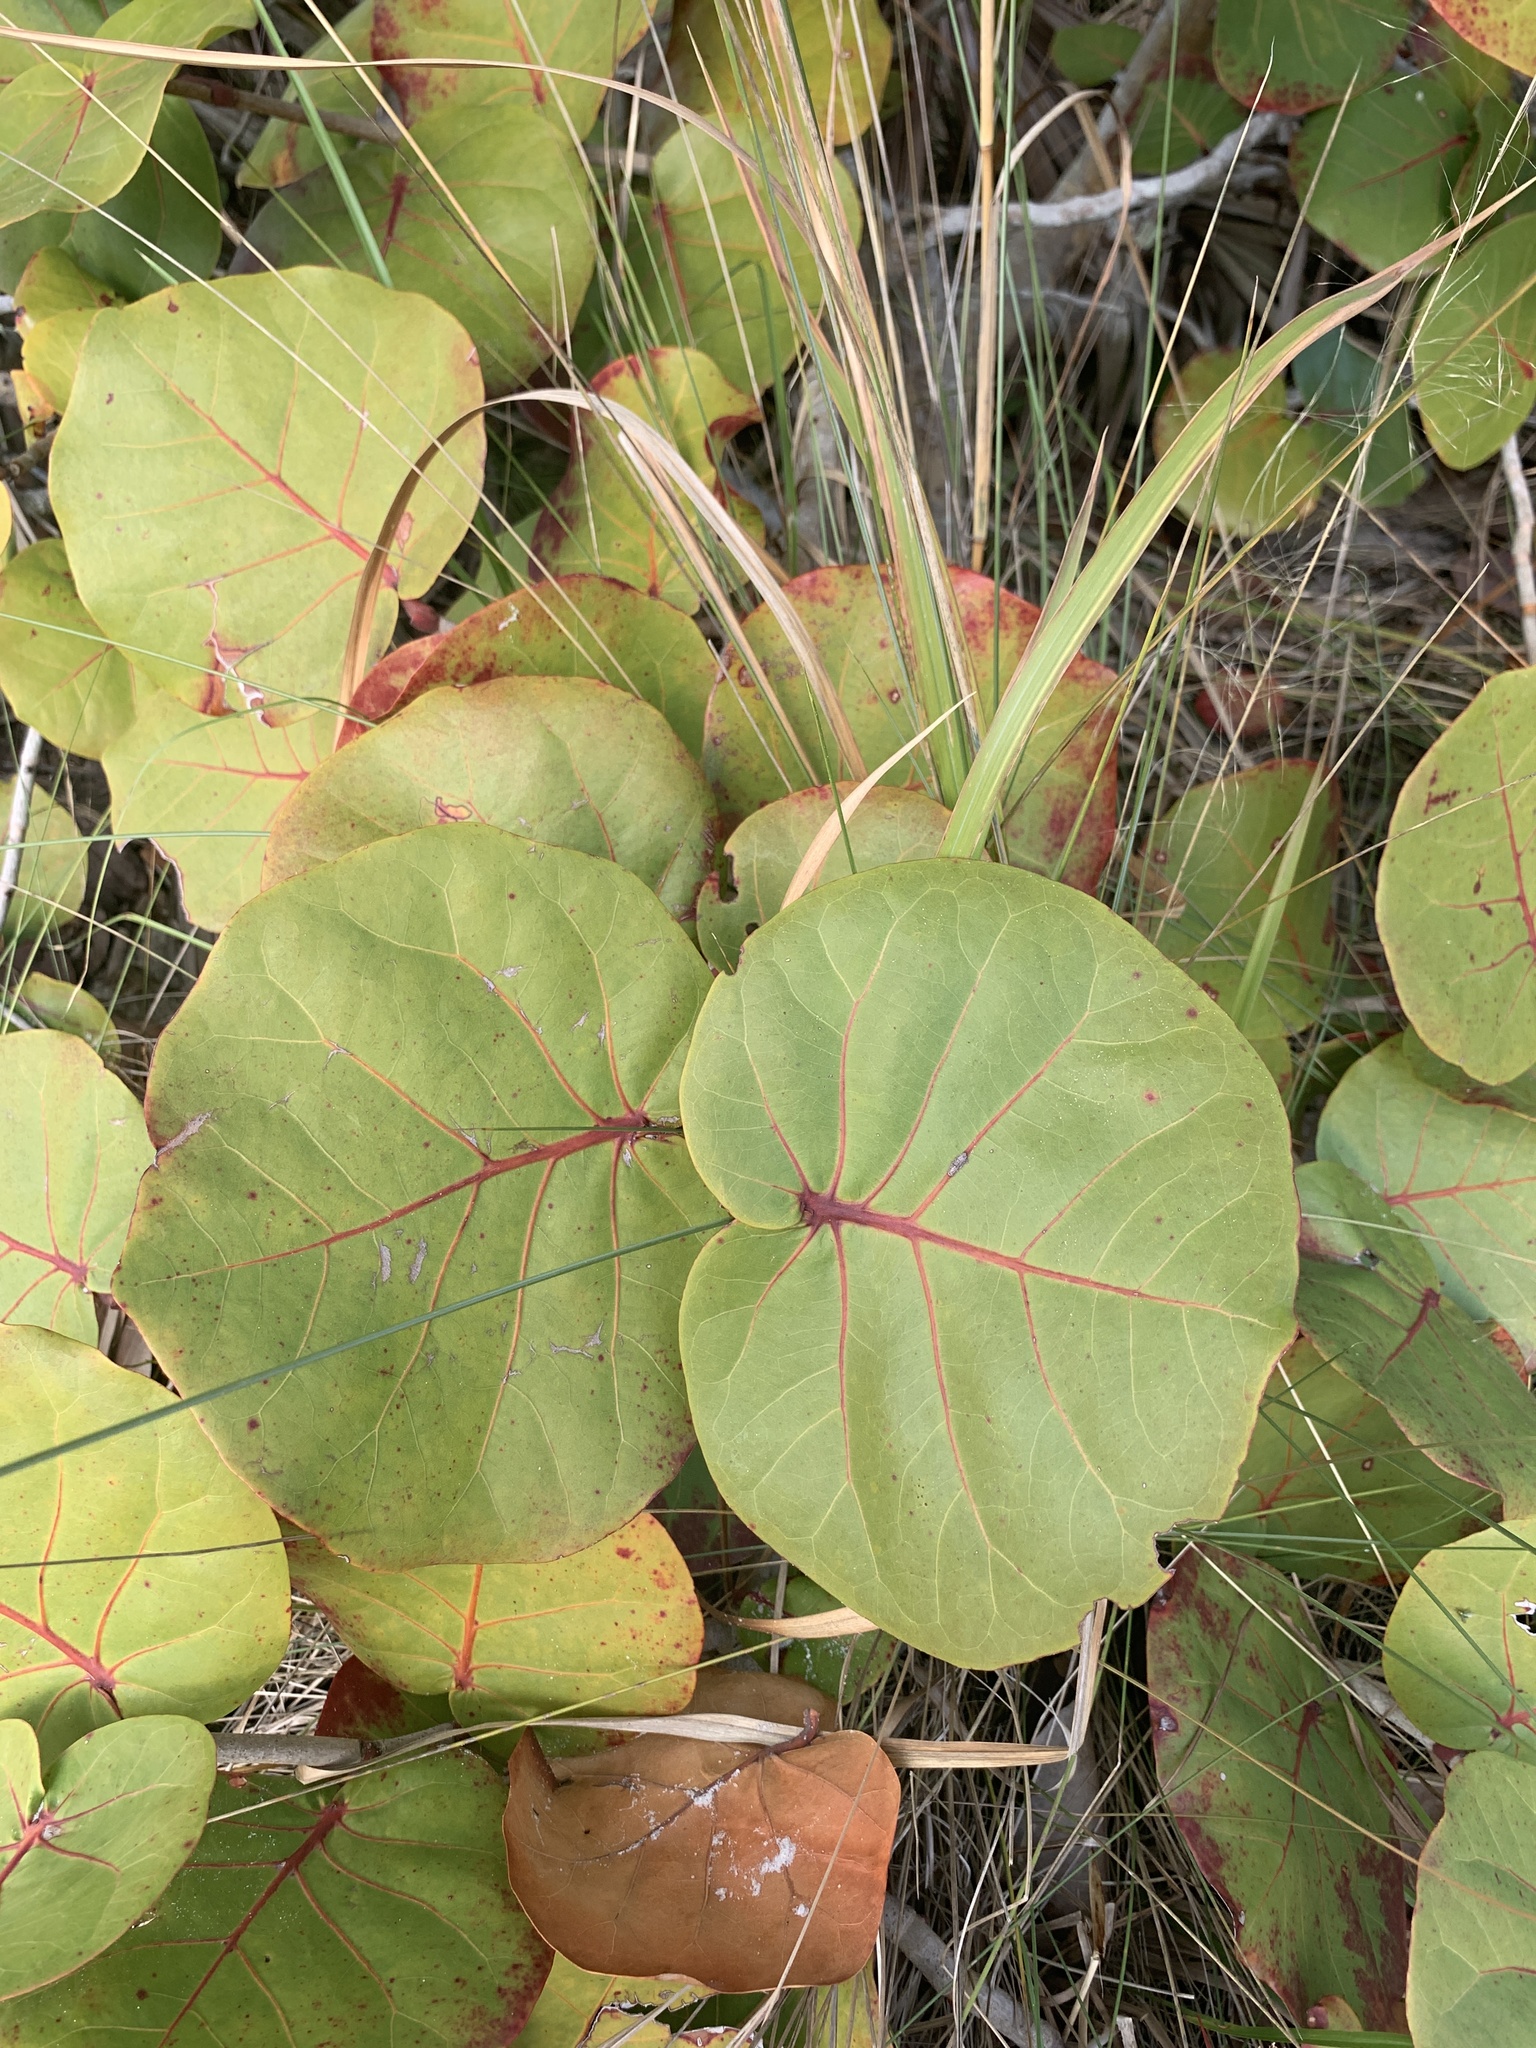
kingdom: Plantae
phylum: Tracheophyta
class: Magnoliopsida
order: Caryophyllales
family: Polygonaceae
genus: Coccoloba
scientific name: Coccoloba uvifera
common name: Seagrape
